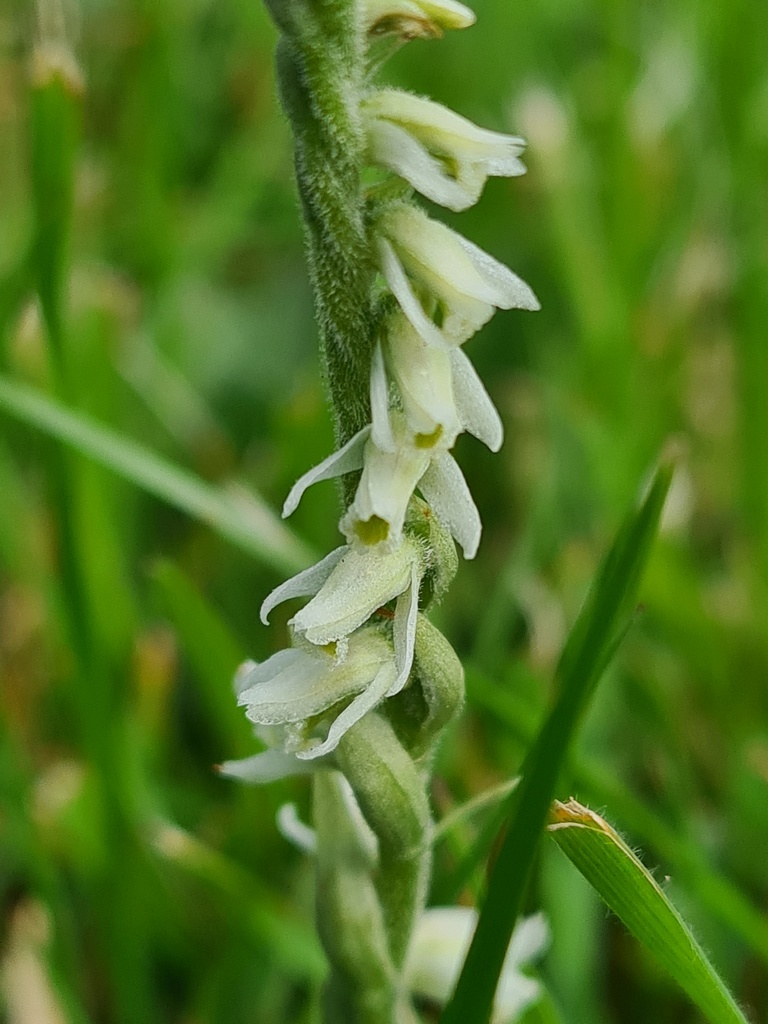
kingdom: Plantae
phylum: Tracheophyta
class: Liliopsida
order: Asparagales
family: Orchidaceae
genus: Spiranthes
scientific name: Spiranthes spiralis
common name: Autumn lady's-tresses
